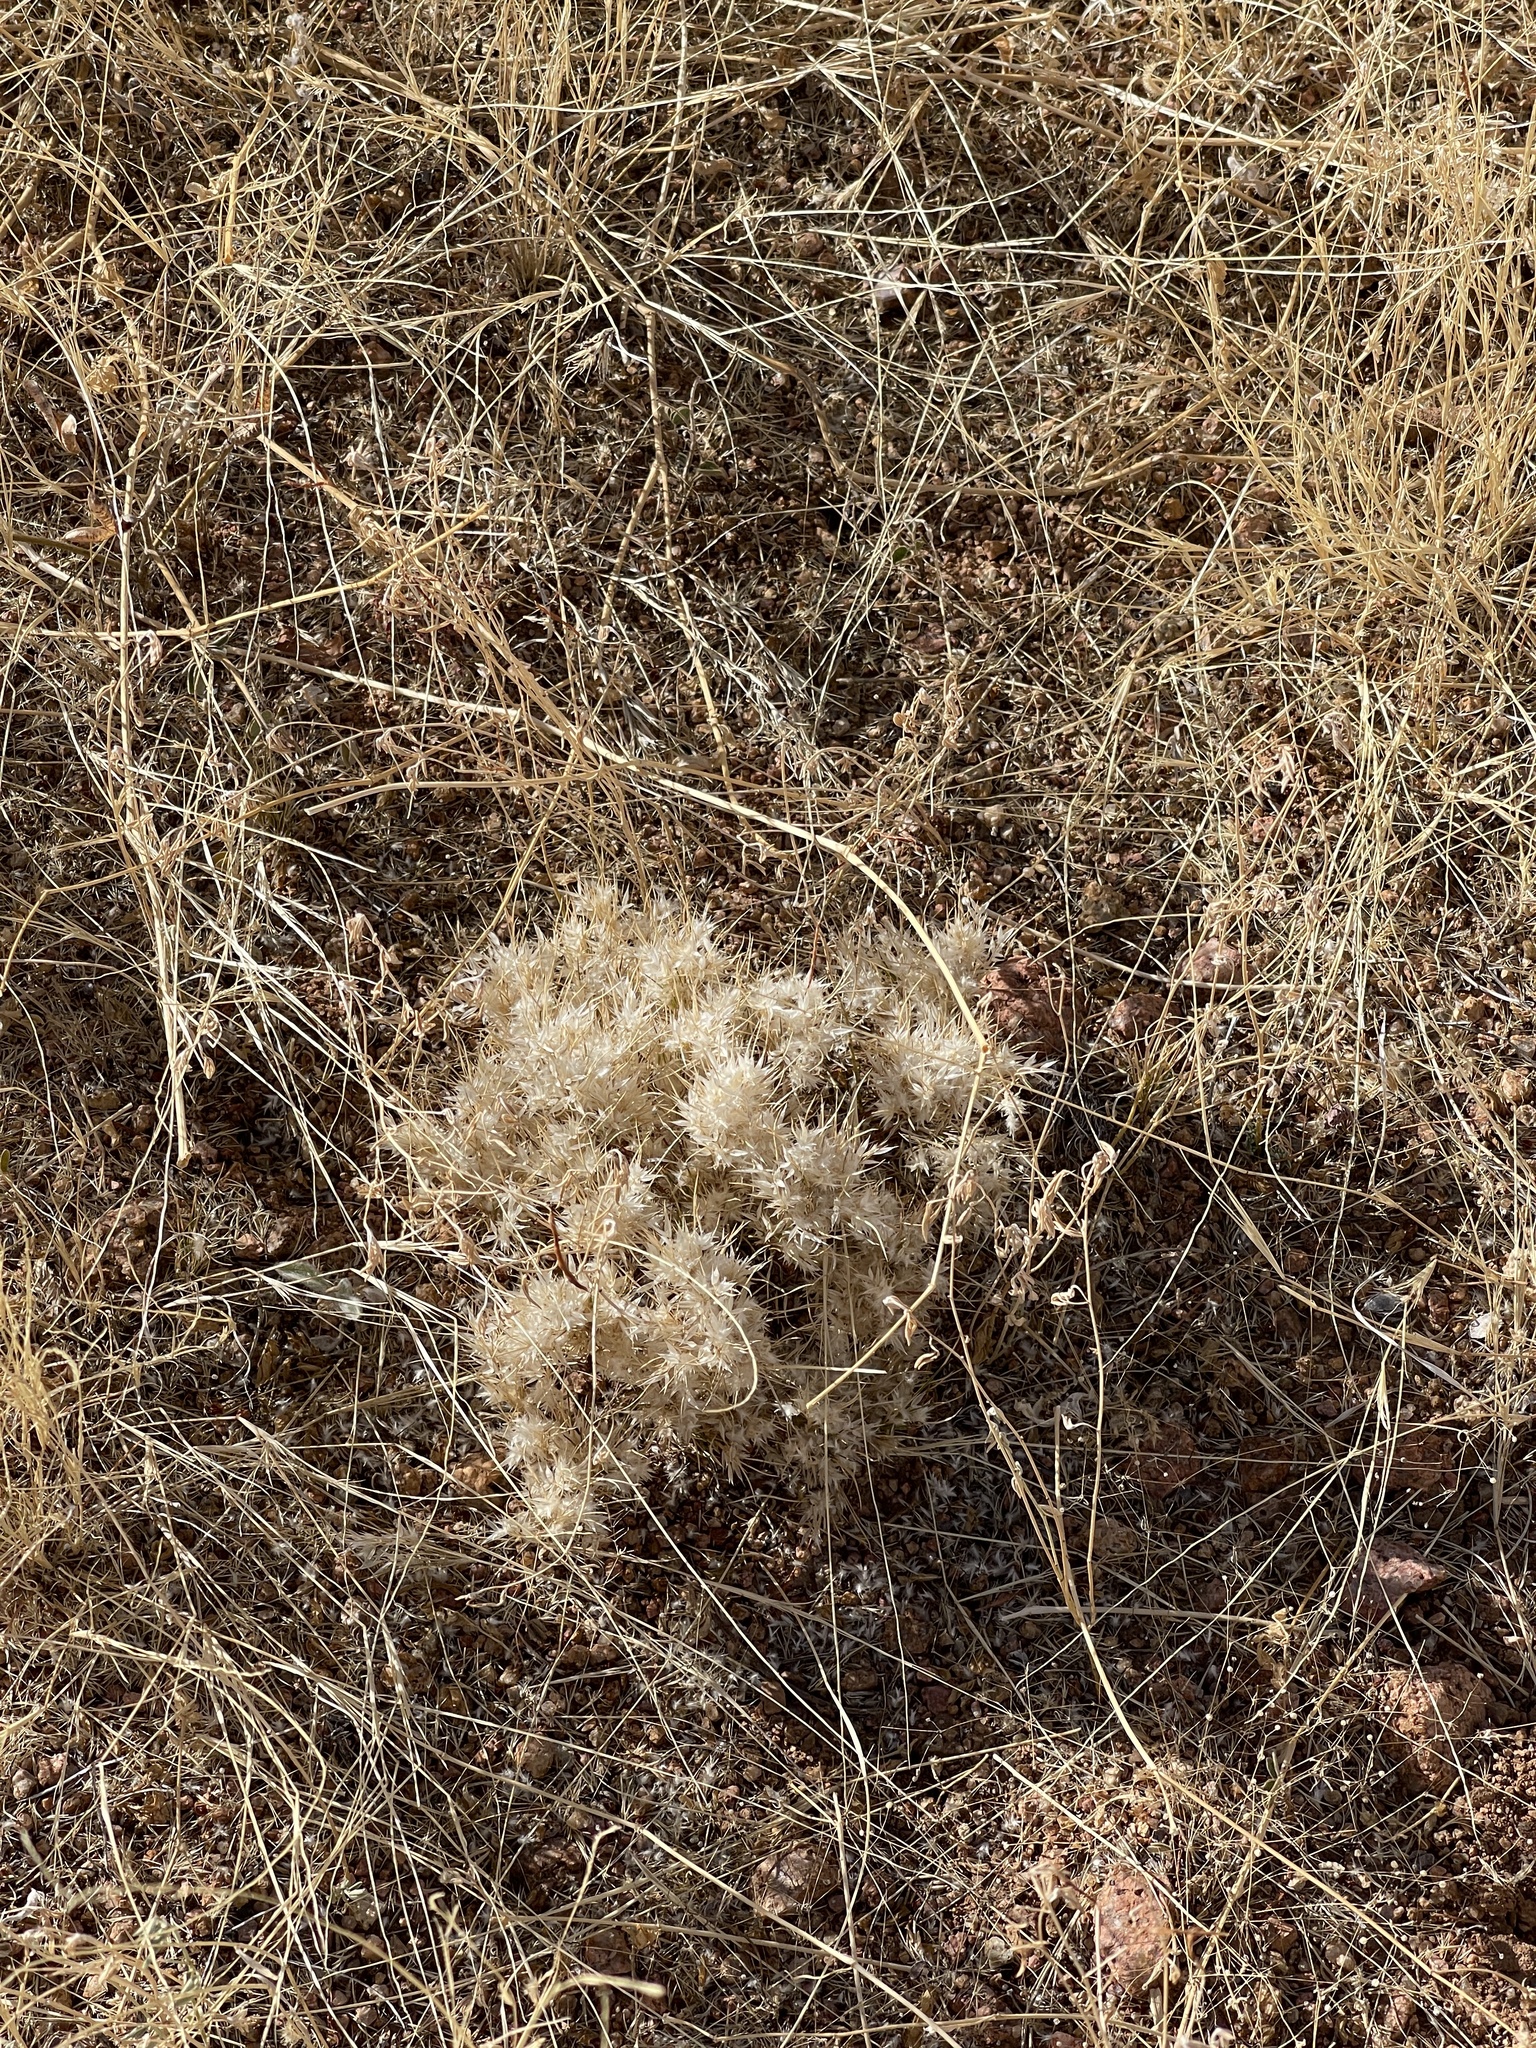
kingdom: Plantae
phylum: Tracheophyta
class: Liliopsida
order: Poales
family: Poaceae
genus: Dasyochloa
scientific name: Dasyochloa pulchella
